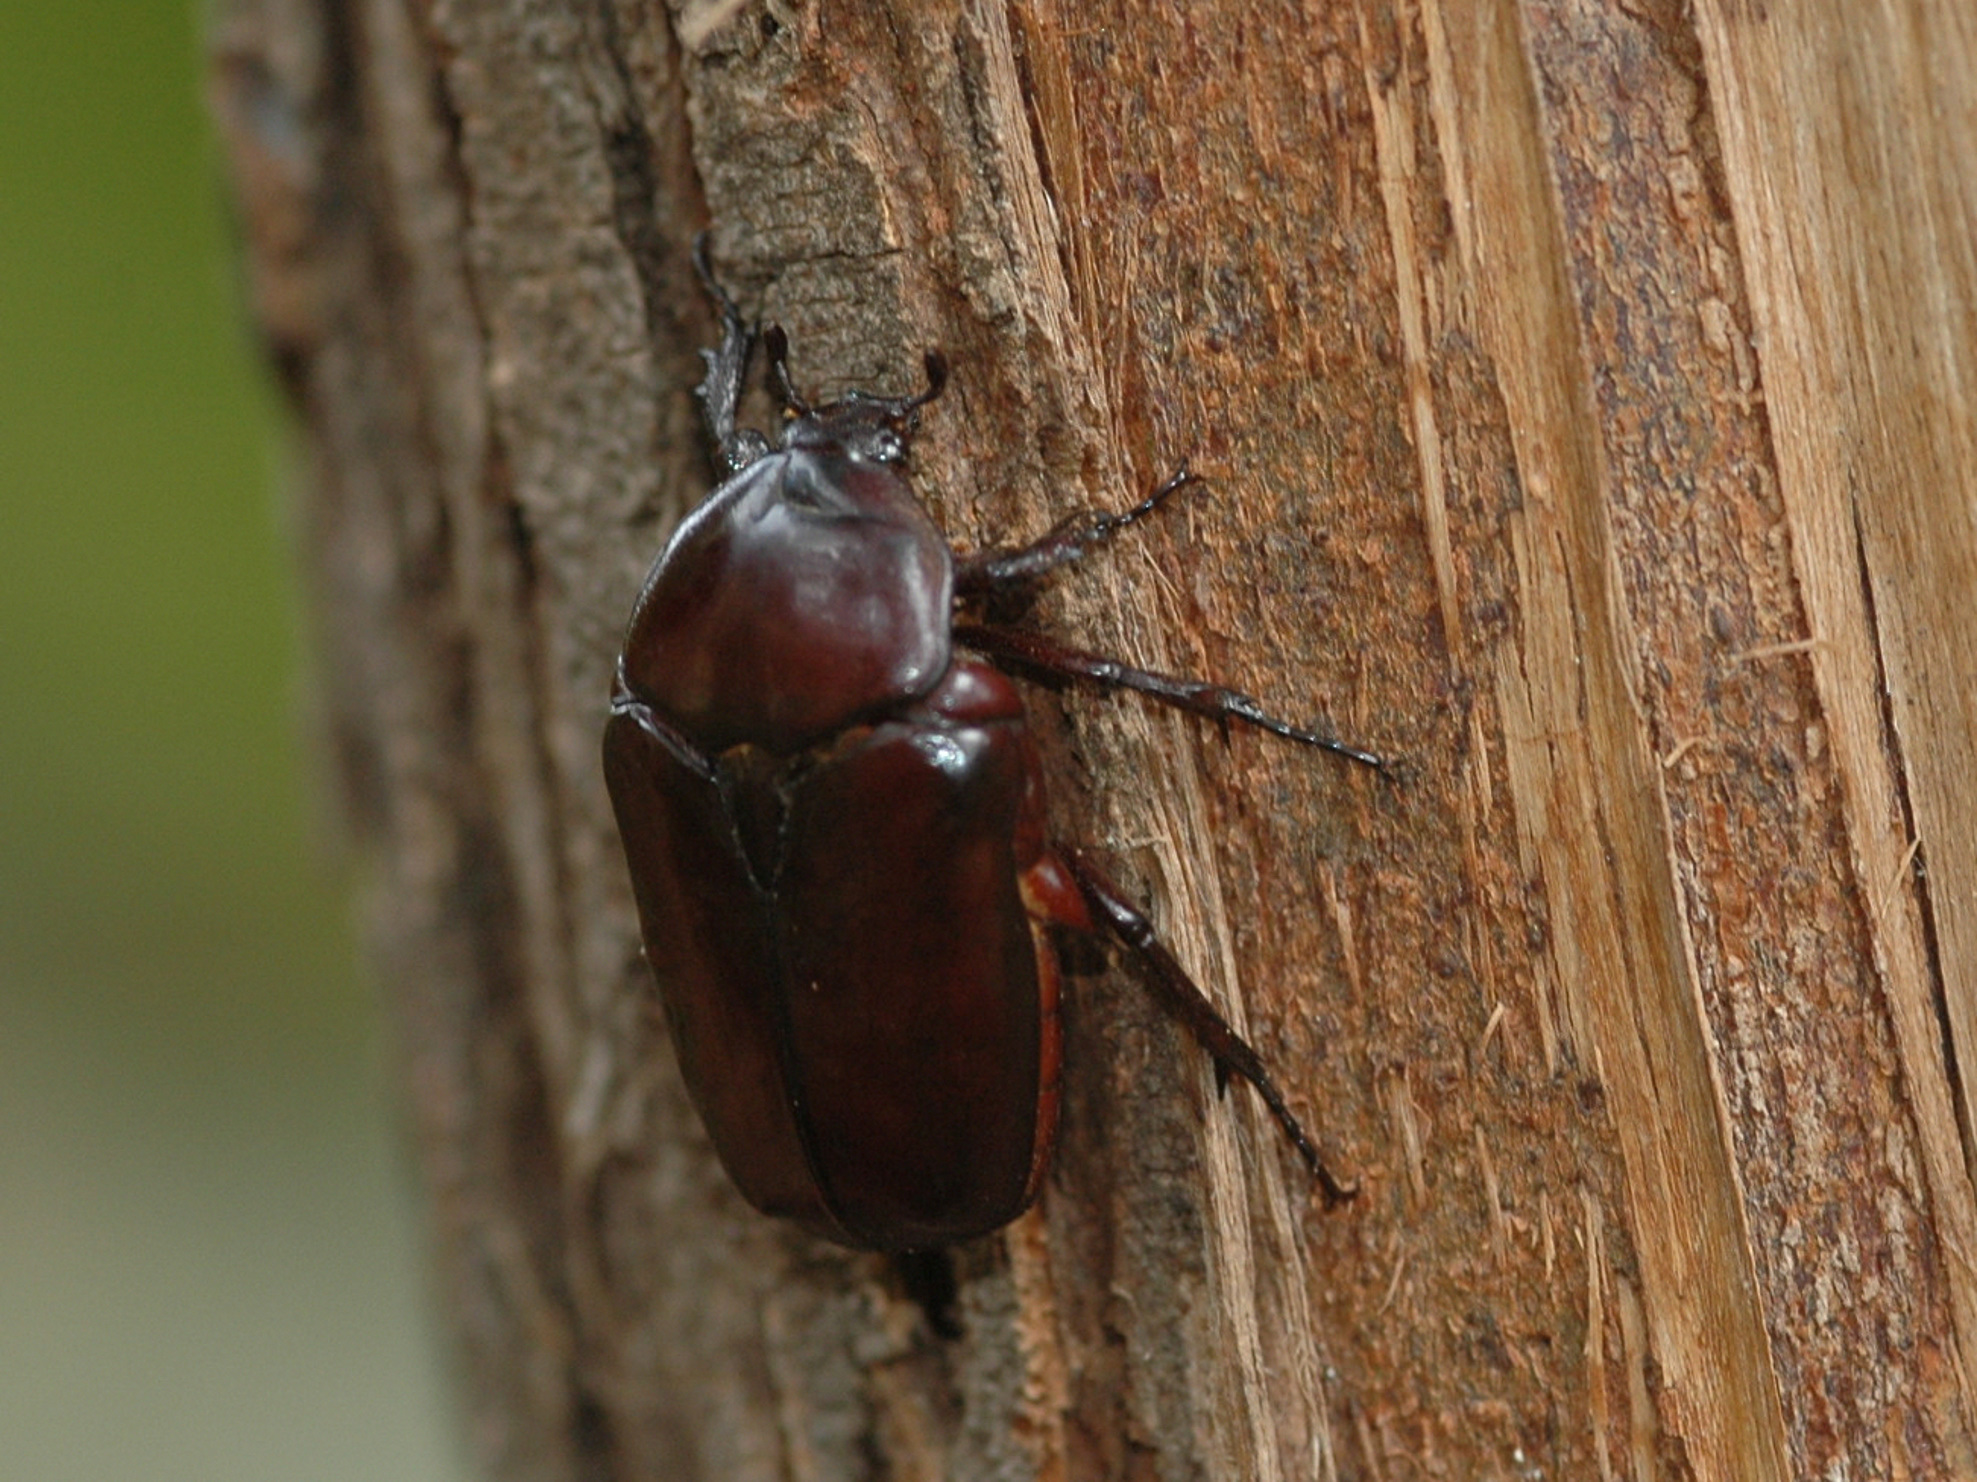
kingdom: Animalia
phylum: Arthropoda
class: Insecta
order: Coleoptera
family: Scarabaeidae
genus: Diplognatha
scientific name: Diplognatha gagates
